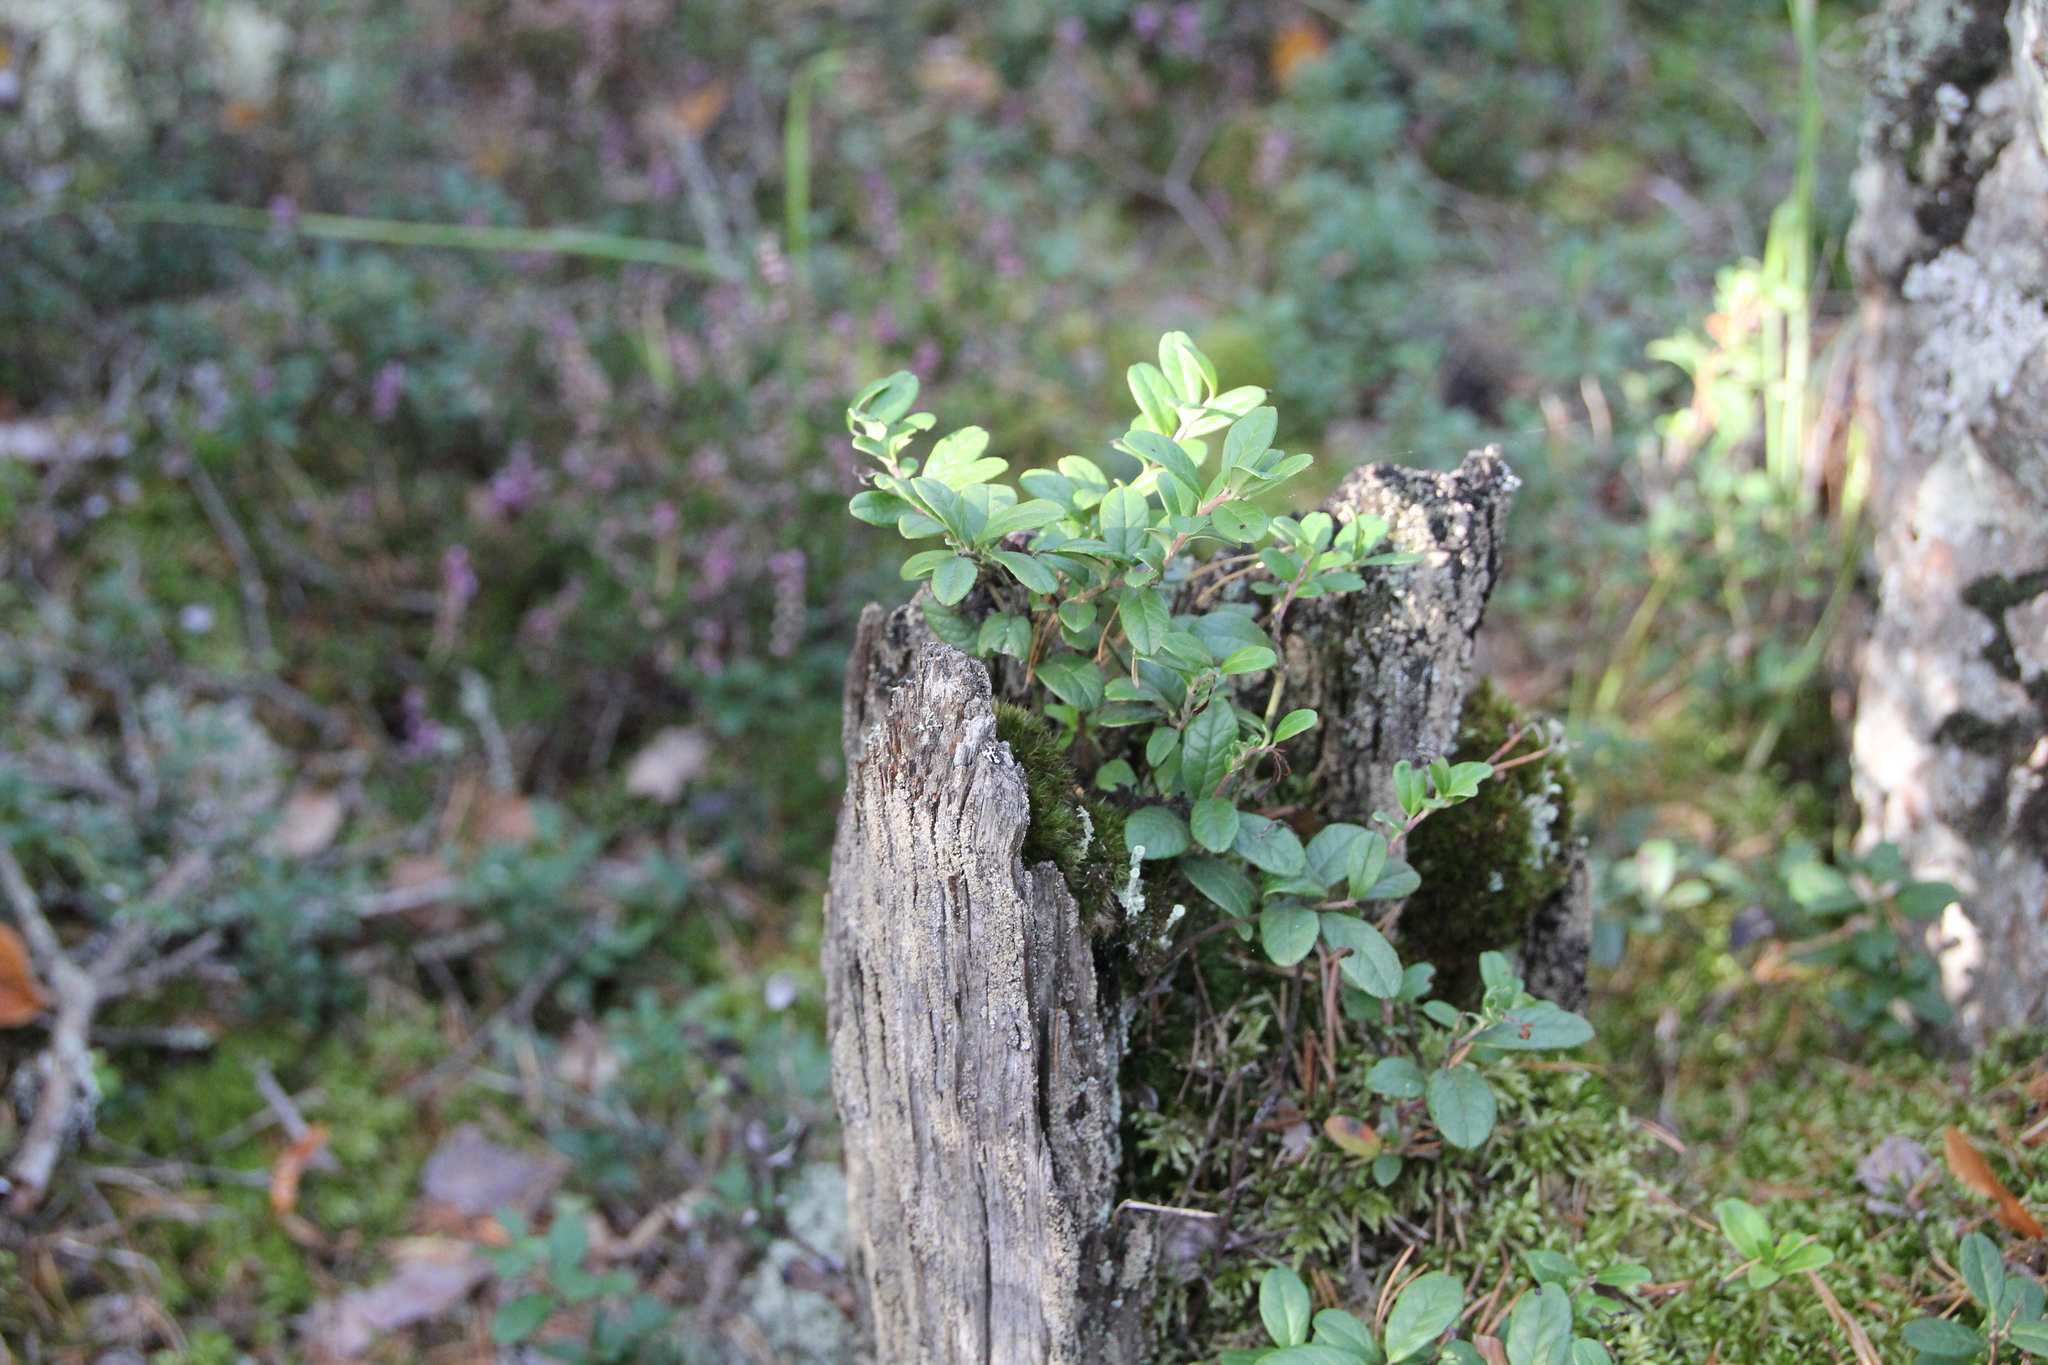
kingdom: Plantae
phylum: Tracheophyta
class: Magnoliopsida
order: Ericales
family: Ericaceae
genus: Vaccinium
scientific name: Vaccinium vitis-idaea
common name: Cowberry
